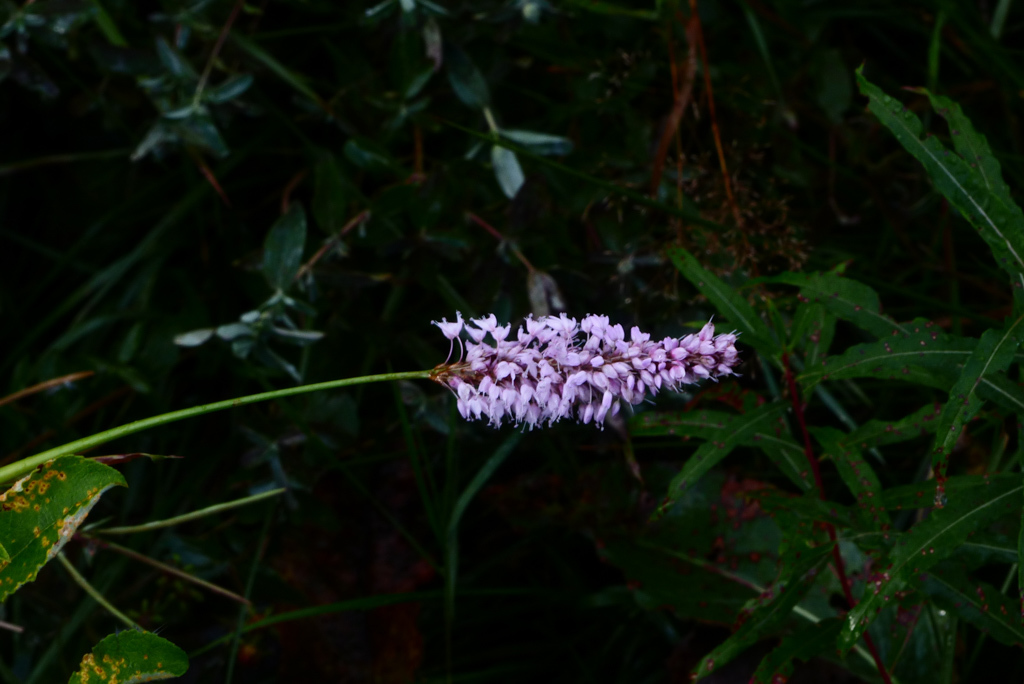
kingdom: Plantae
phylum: Tracheophyta
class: Magnoliopsida
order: Caryophyllales
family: Polygonaceae
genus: Bistorta
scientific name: Bistorta officinalis
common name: Common bistort
